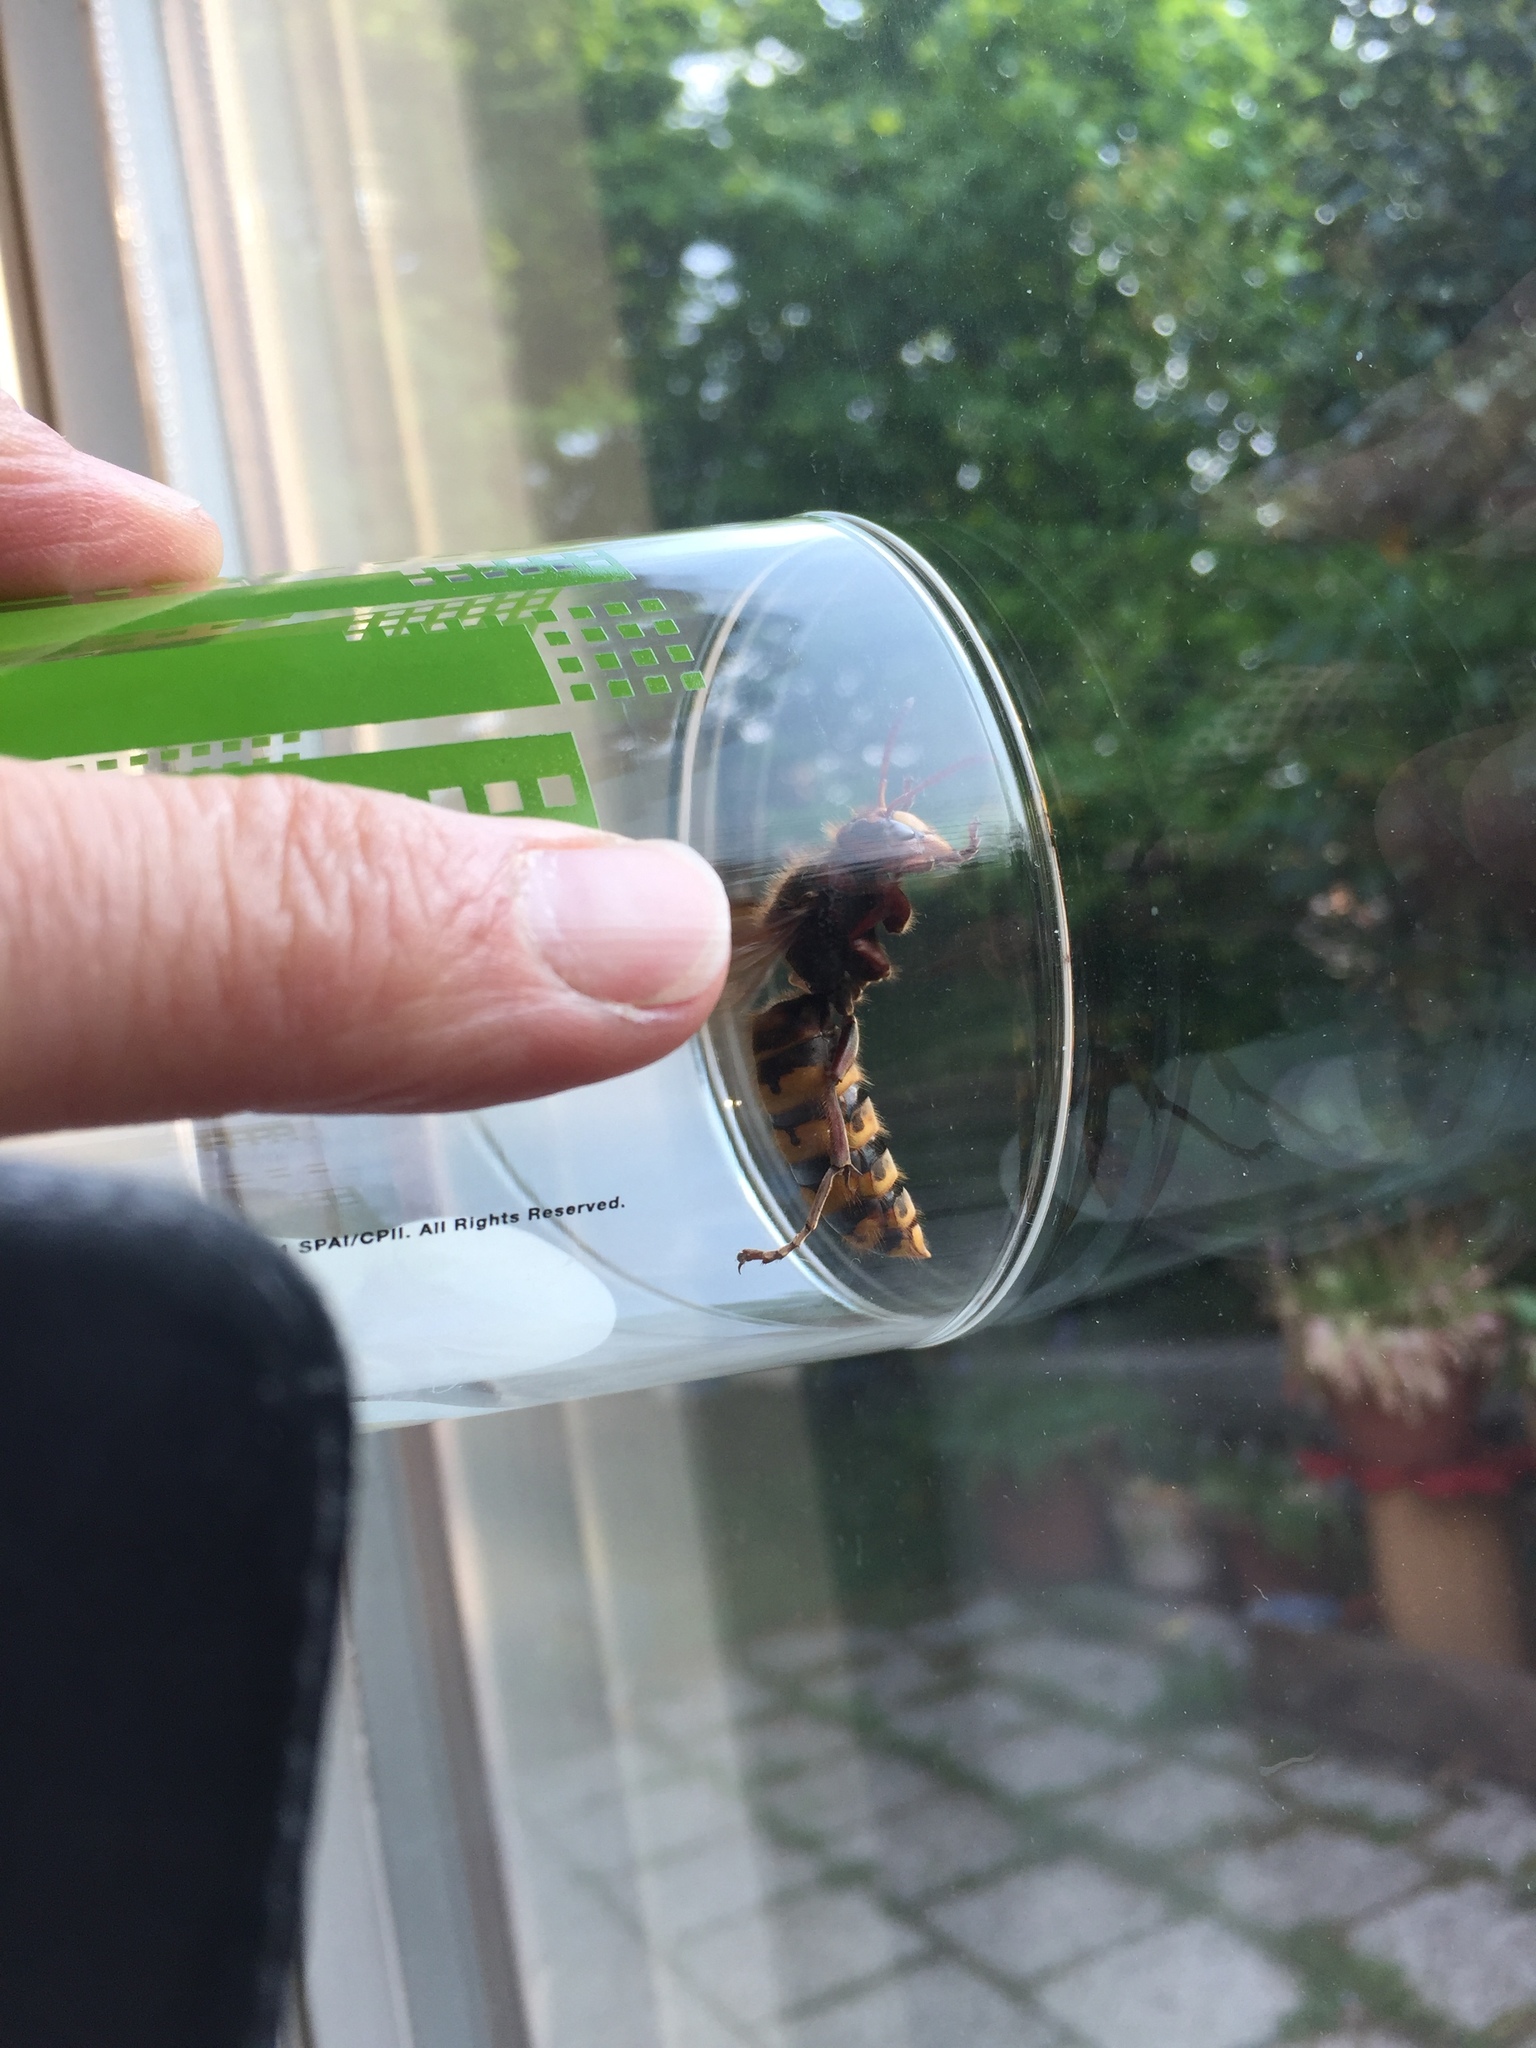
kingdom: Animalia
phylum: Arthropoda
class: Insecta
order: Hymenoptera
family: Vespidae
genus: Vespa
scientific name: Vespa crabro
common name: Hornet
